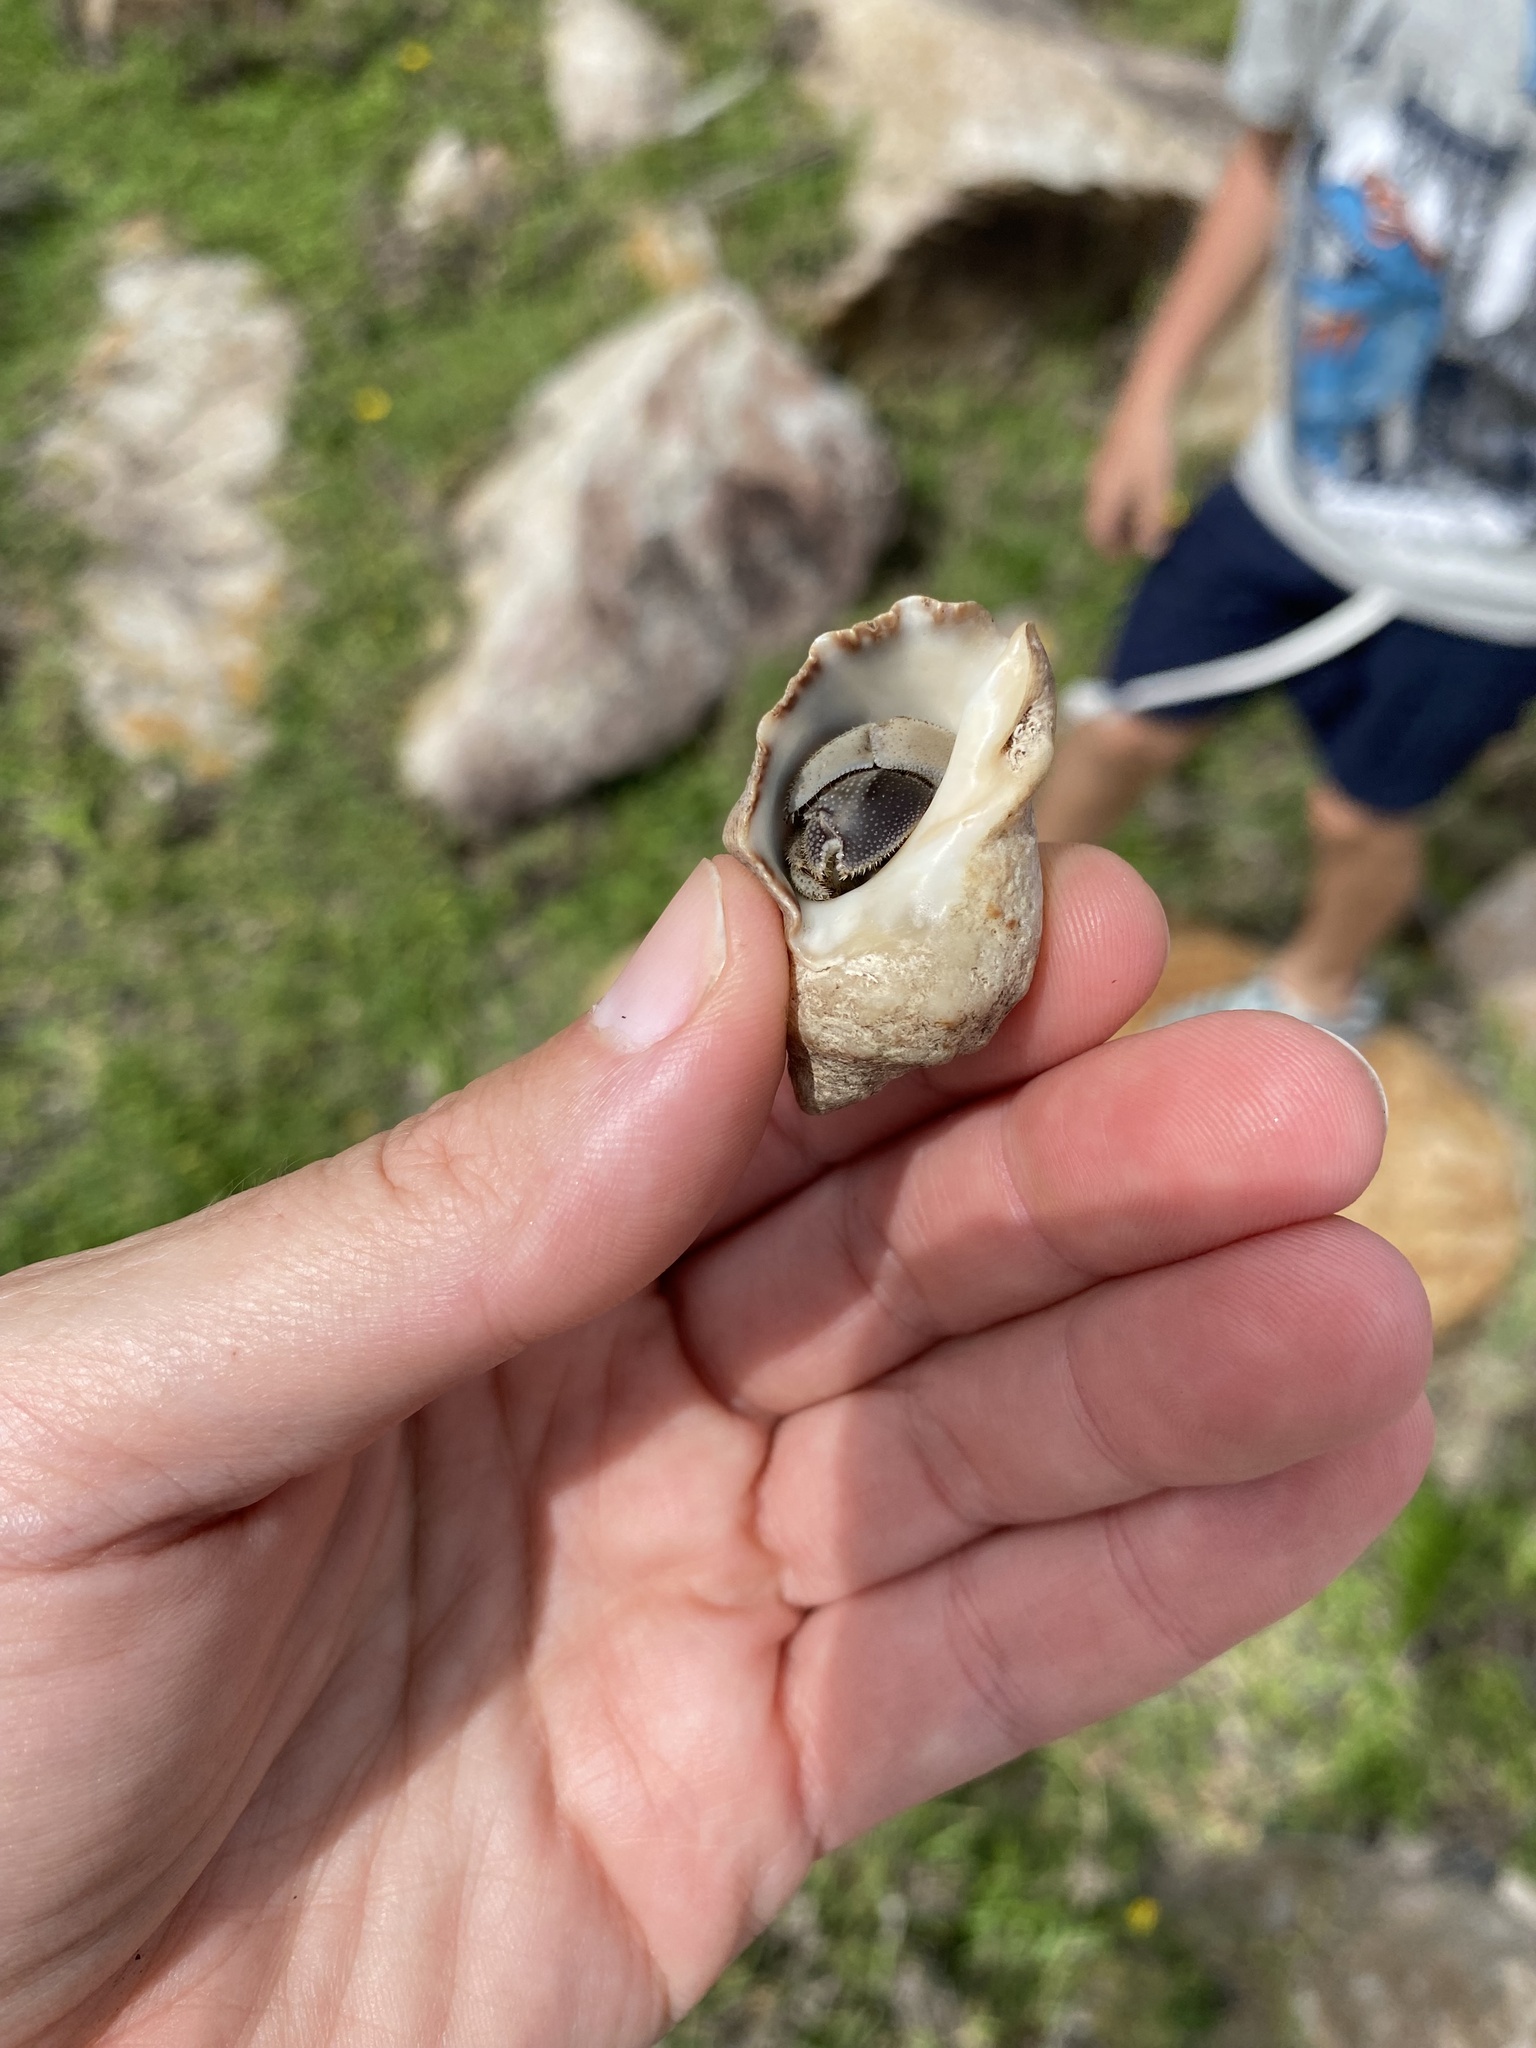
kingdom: Animalia
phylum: Arthropoda
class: Malacostraca
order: Decapoda
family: Coenobitidae
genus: Coenobita
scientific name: Coenobita rugosus
